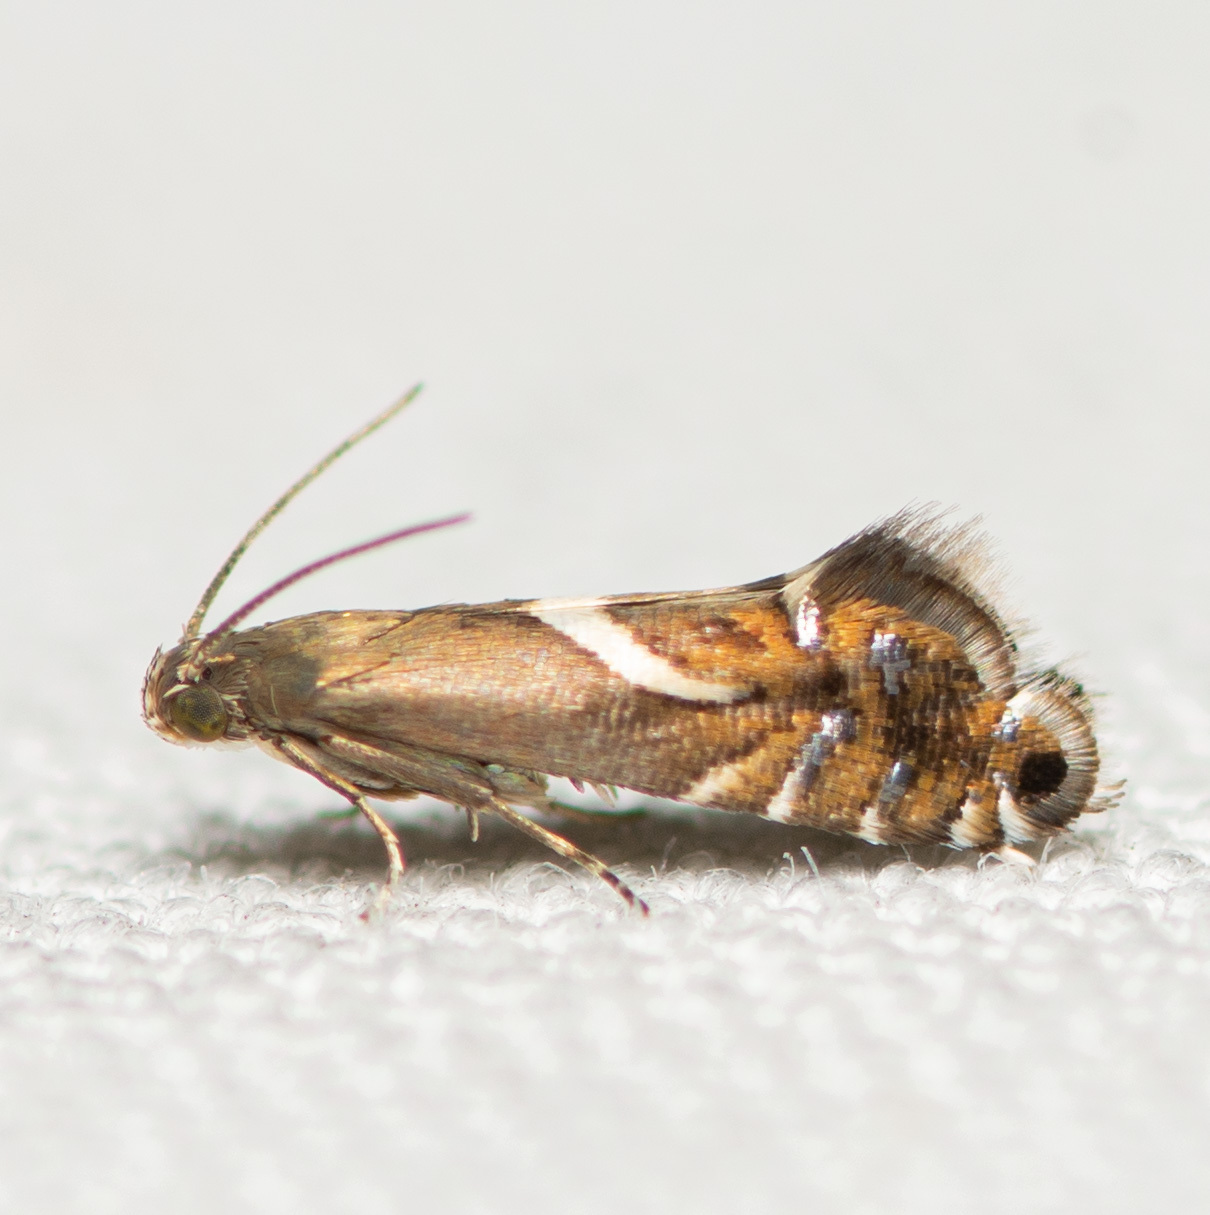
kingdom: Animalia
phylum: Arthropoda
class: Insecta
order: Lepidoptera
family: Glyphipterigidae
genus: Glyphipterix
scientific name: Glyphipterix Diploschizia impigritella
